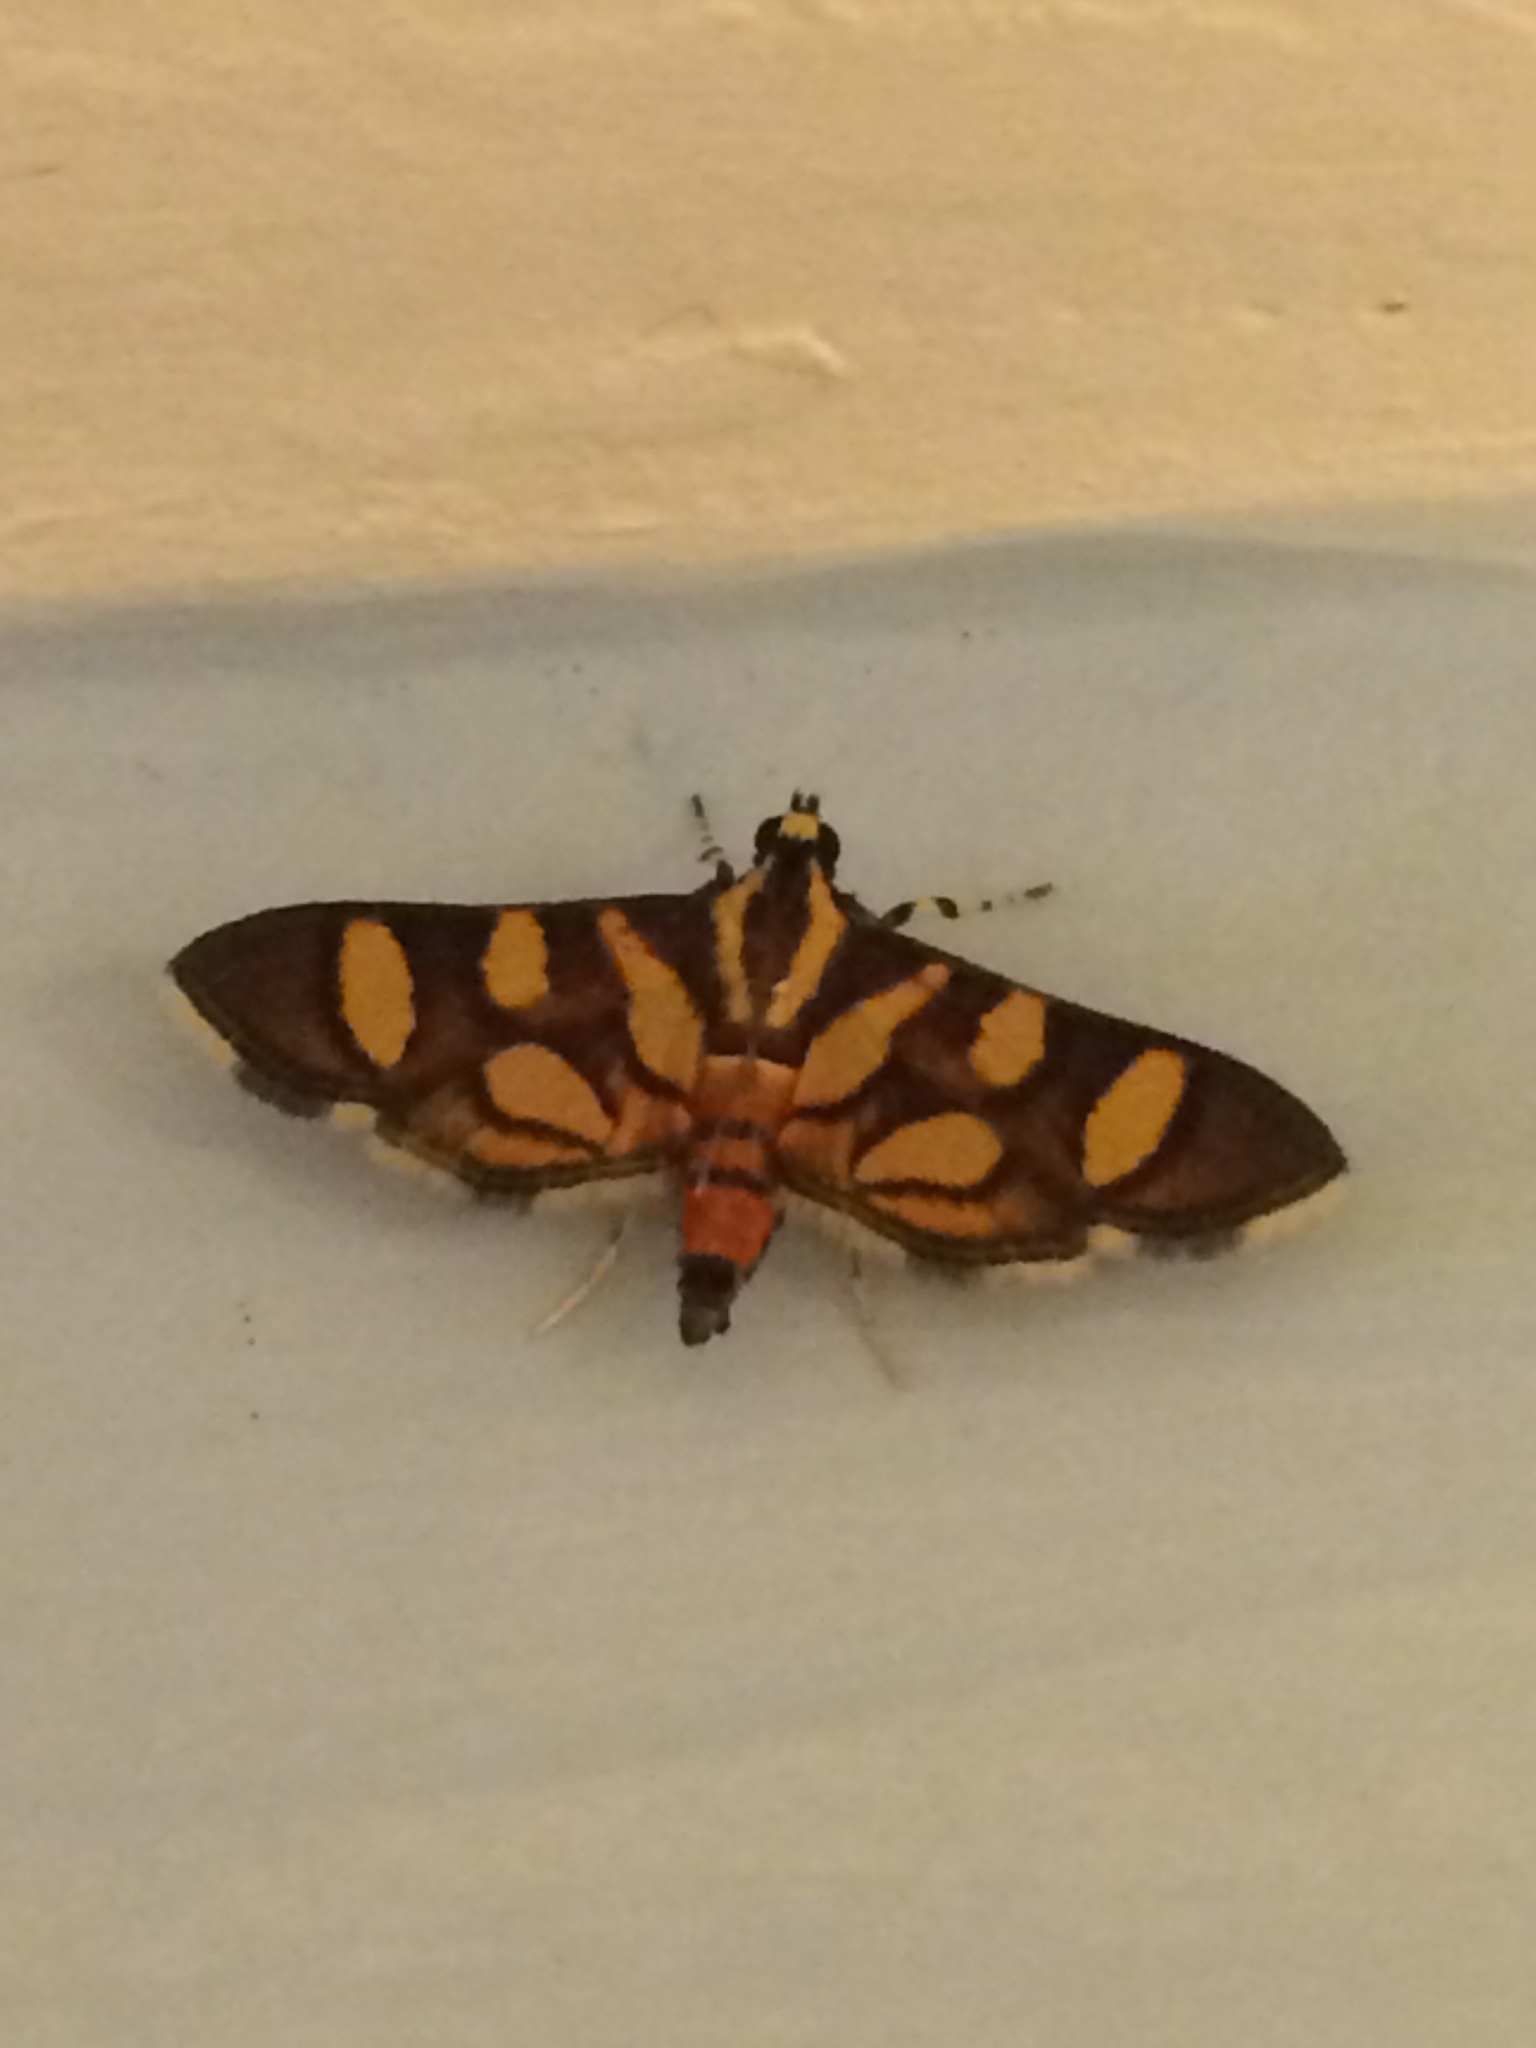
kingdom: Animalia
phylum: Arthropoda
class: Insecta
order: Lepidoptera
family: Crambidae
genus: Syngamia
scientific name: Syngamia florella
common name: Orange-spotted flower moth
